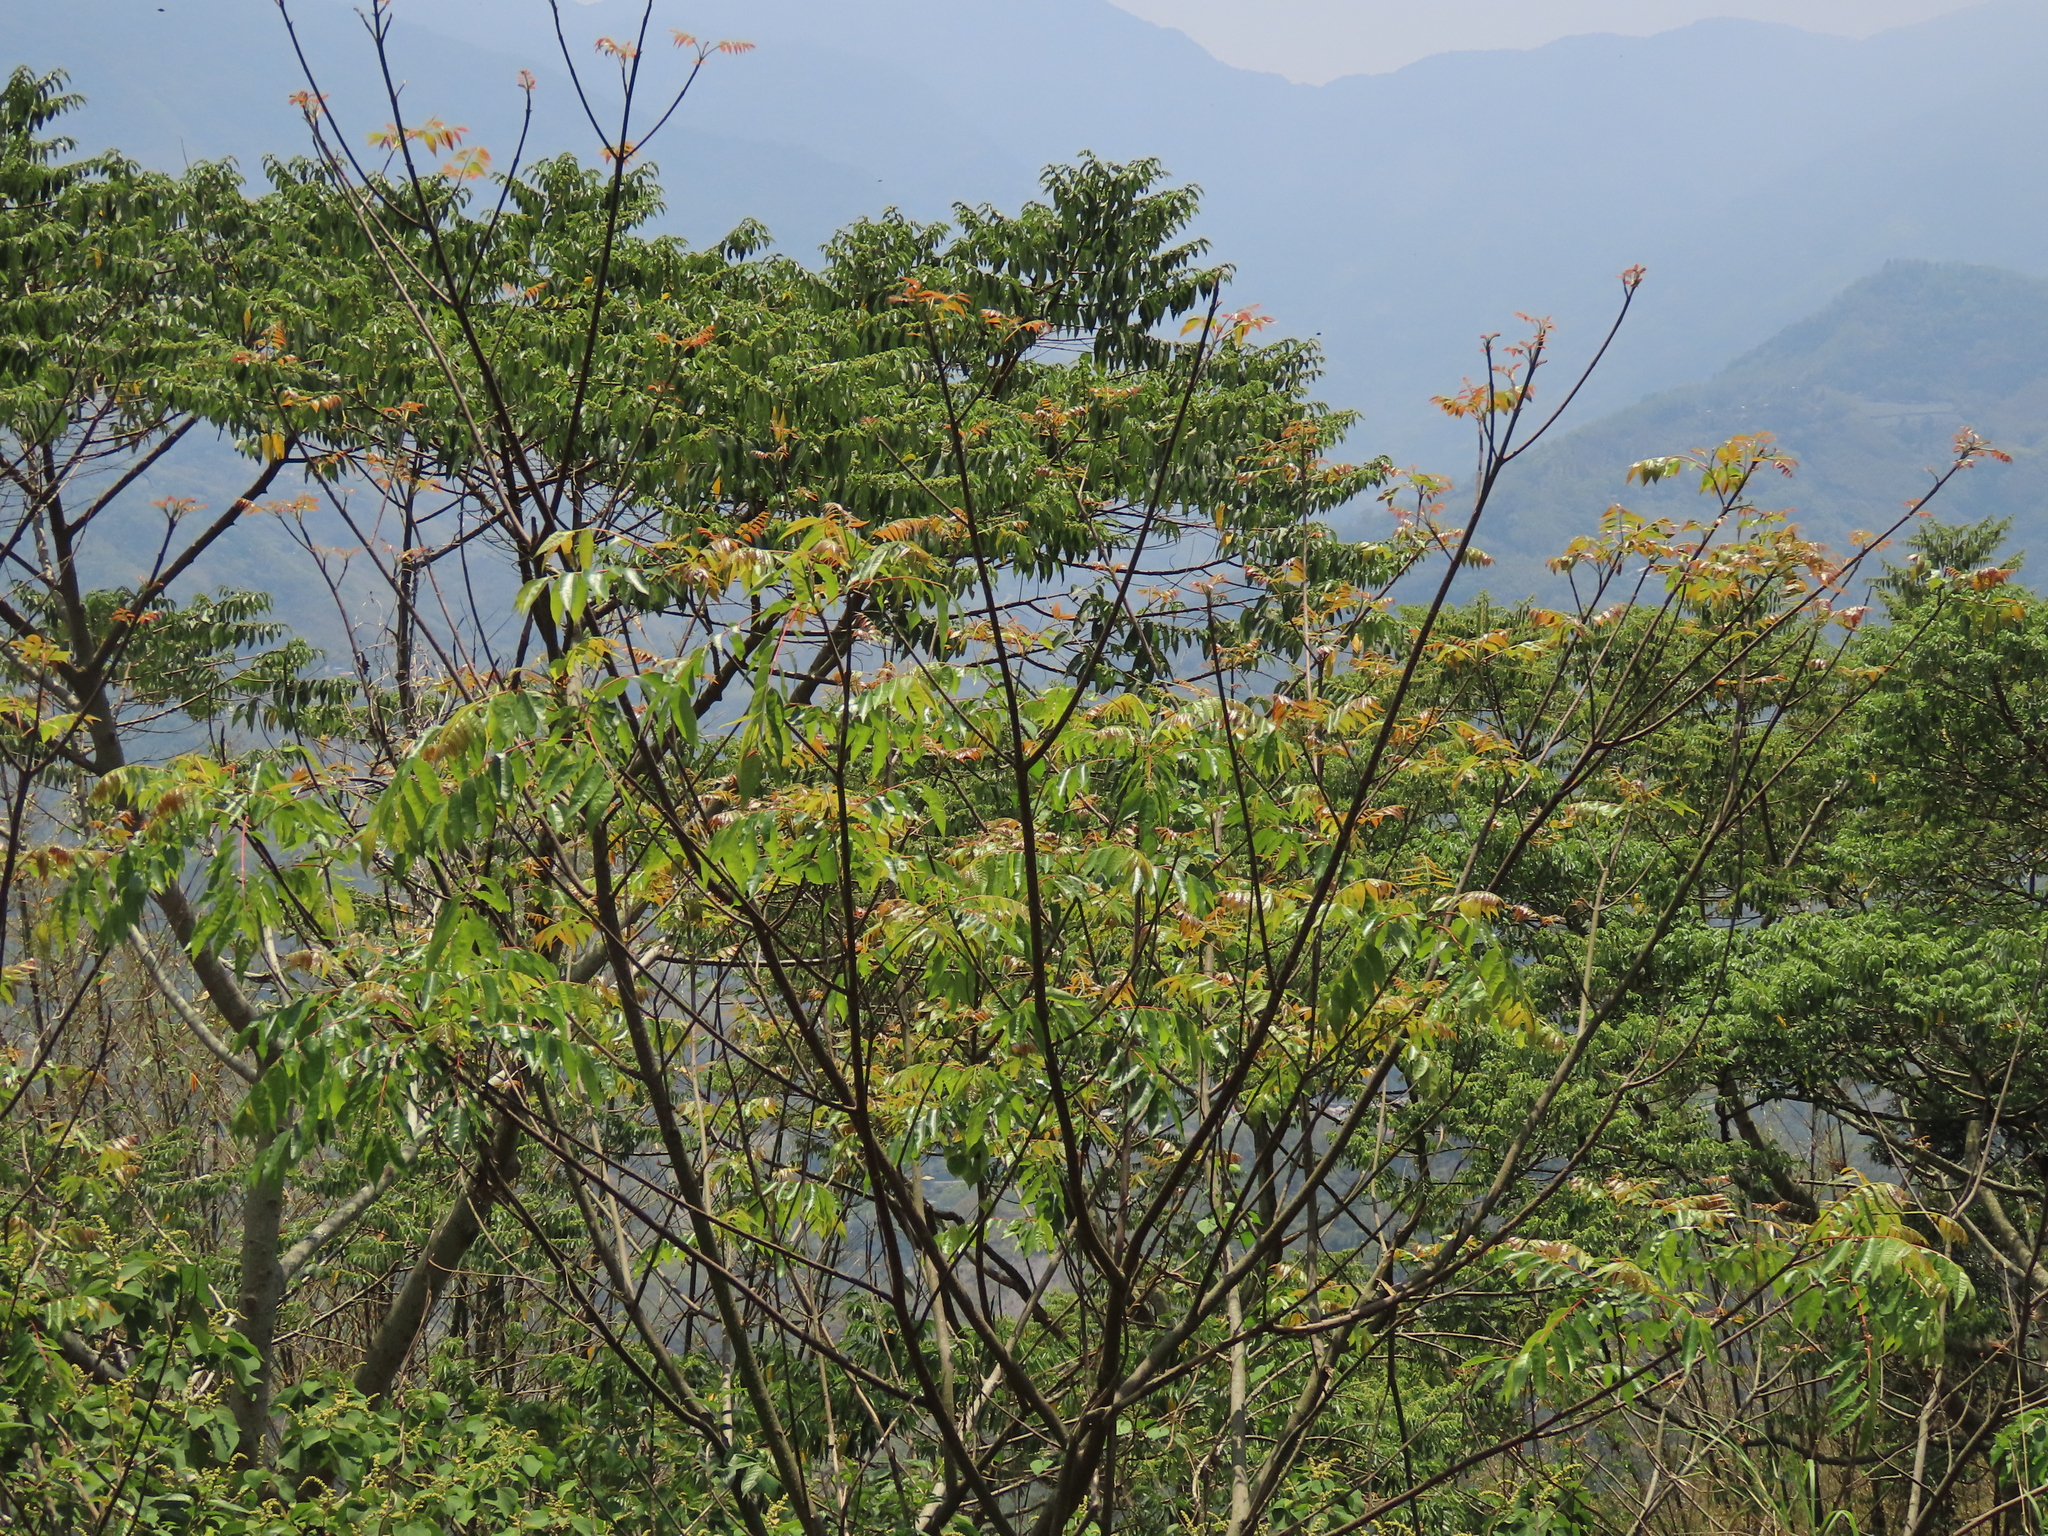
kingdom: Plantae
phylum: Tracheophyta
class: Magnoliopsida
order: Sapindales
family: Rutaceae
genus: Tetradium
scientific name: Tetradium glabrifolium
